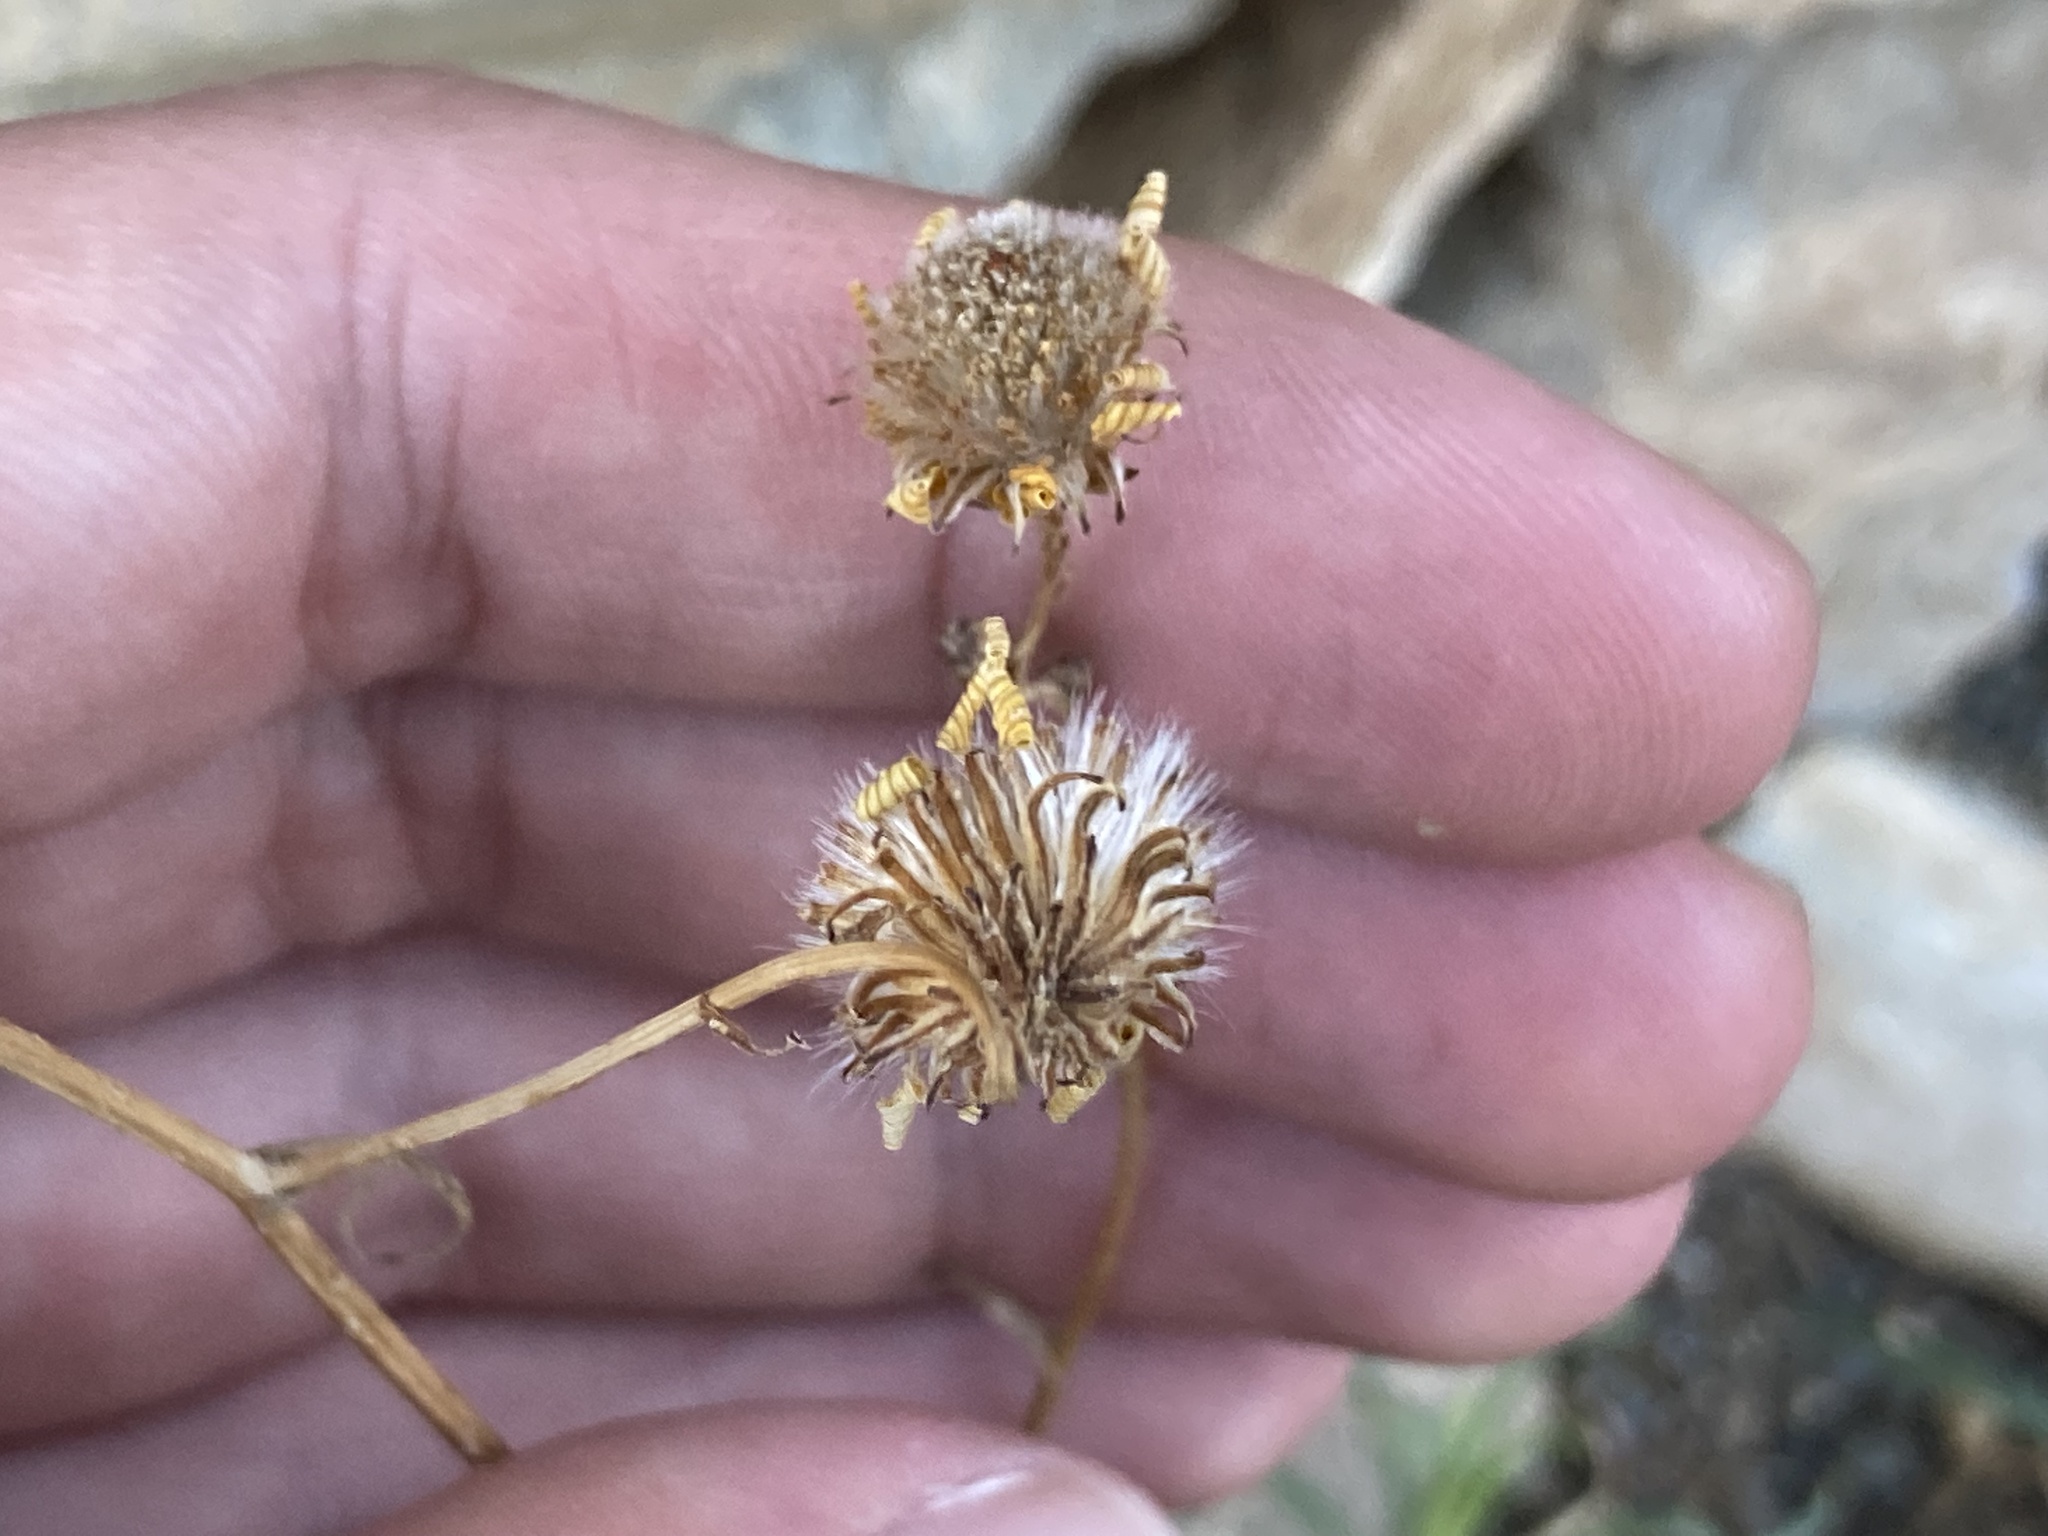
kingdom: Plantae
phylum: Tracheophyta
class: Magnoliopsida
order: Asterales
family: Asteraceae
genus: Senecio
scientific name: Senecio inaequidens
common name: Narrow-leaved ragwort
